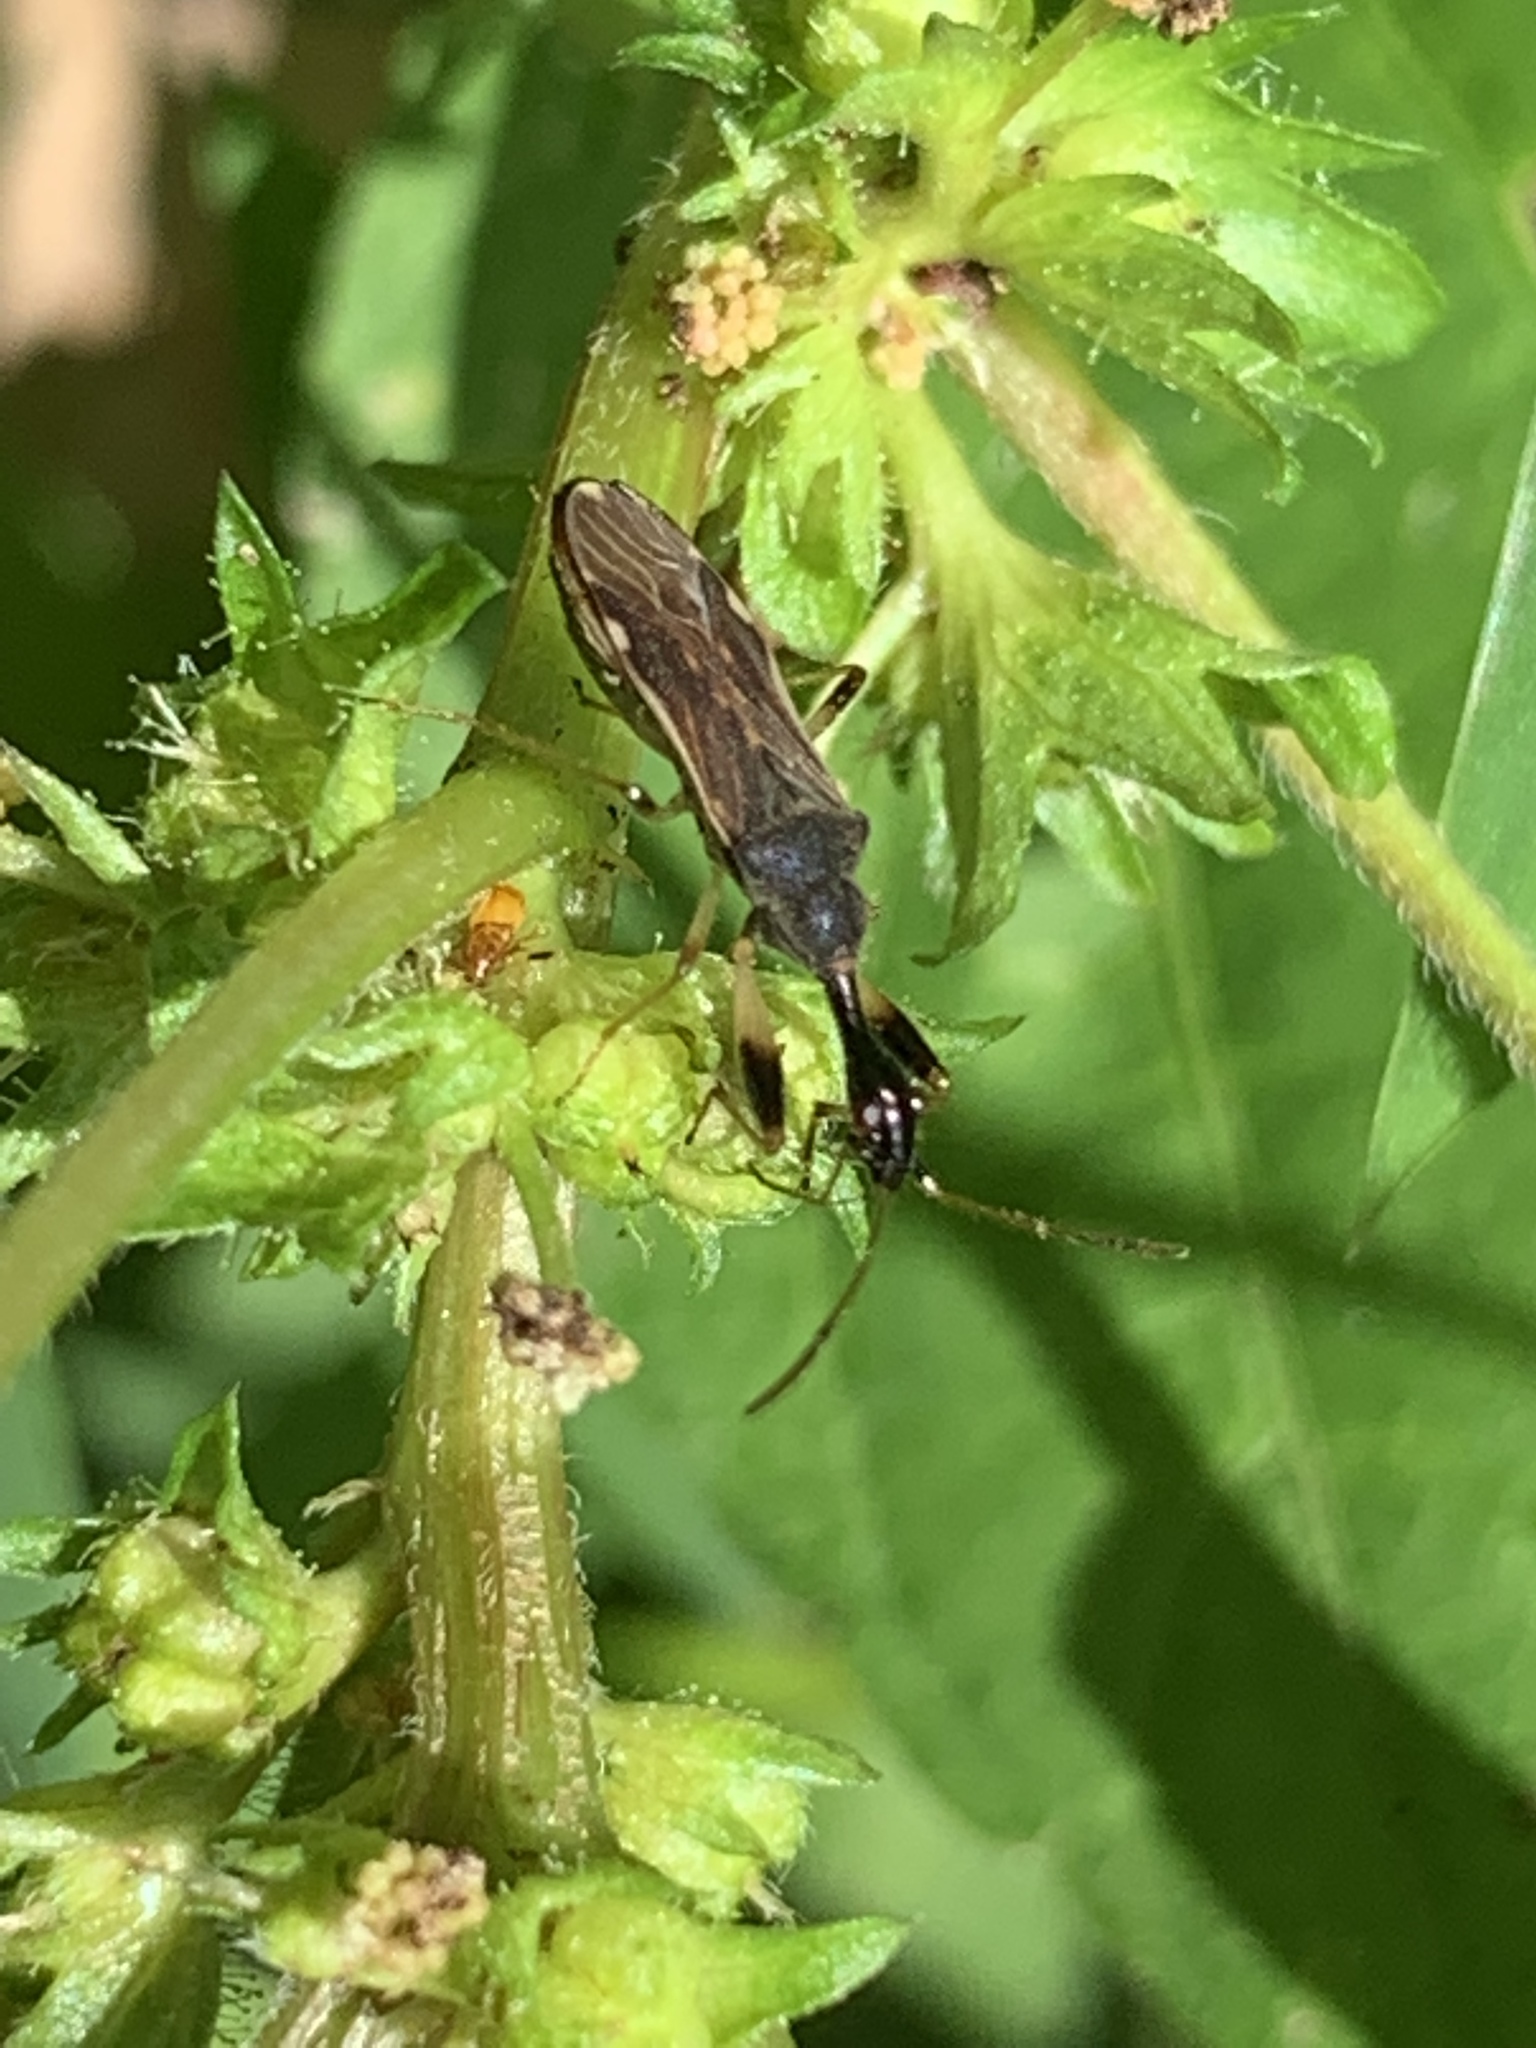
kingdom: Animalia
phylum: Arthropoda
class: Insecta
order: Hemiptera
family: Rhyparochromidae
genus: Myodocha
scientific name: Myodocha serripes
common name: Long-necked seed bug
